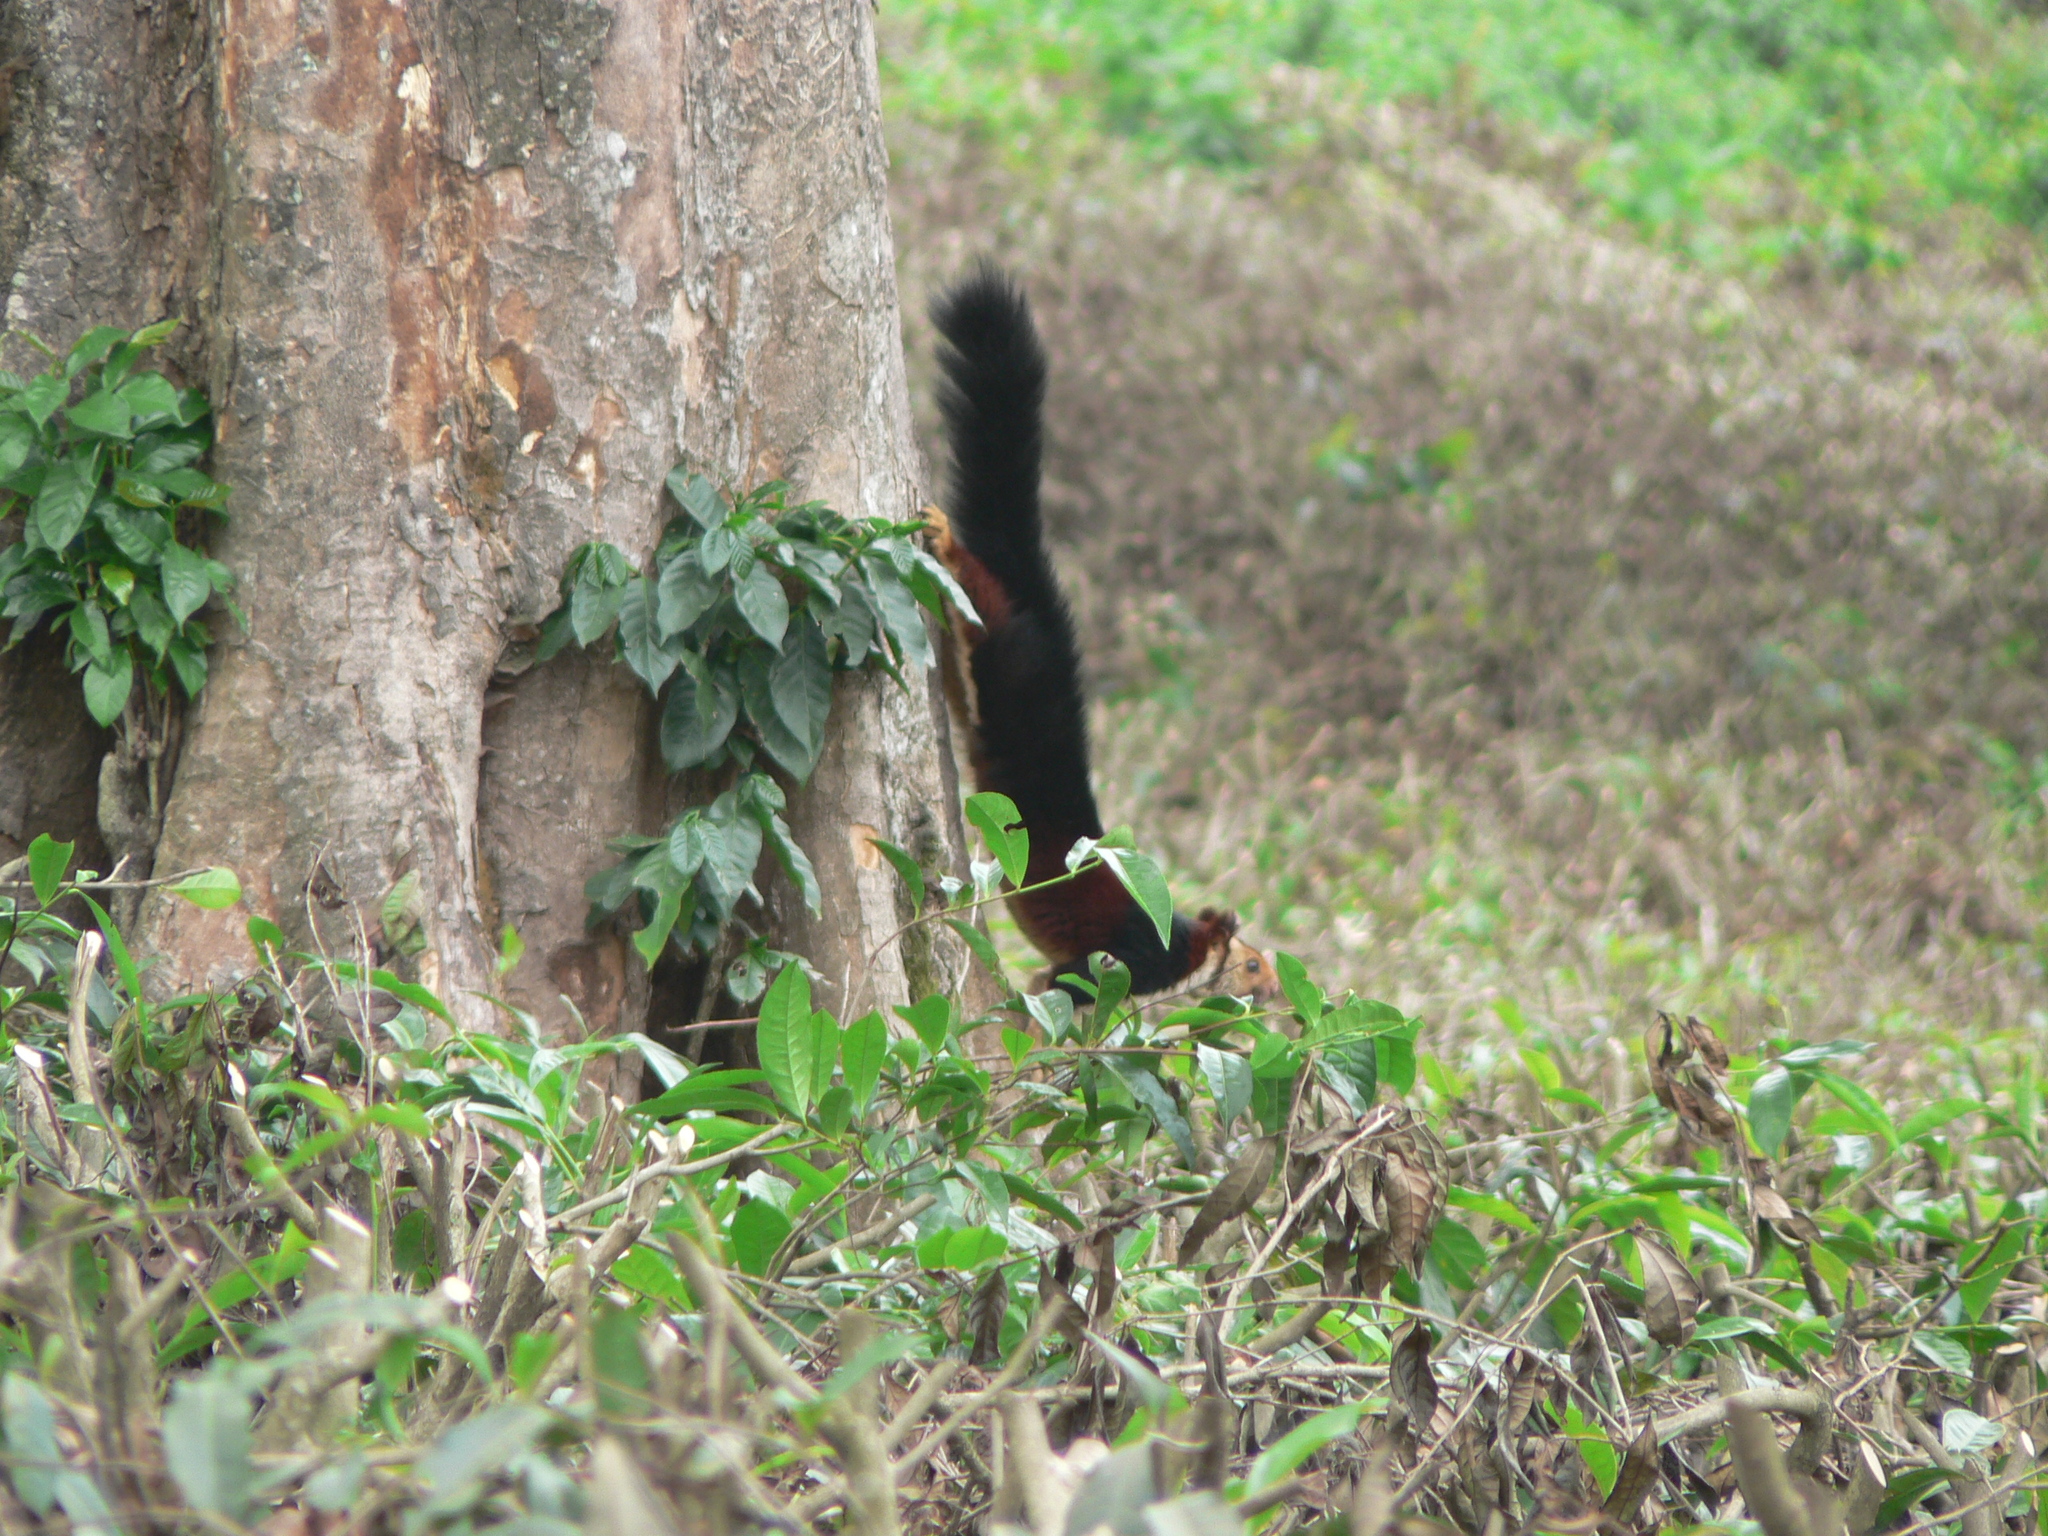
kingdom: Animalia
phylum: Chordata
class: Mammalia
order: Rodentia
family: Sciuridae
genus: Ratufa
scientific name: Ratufa indica
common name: Indian giant squirrel
